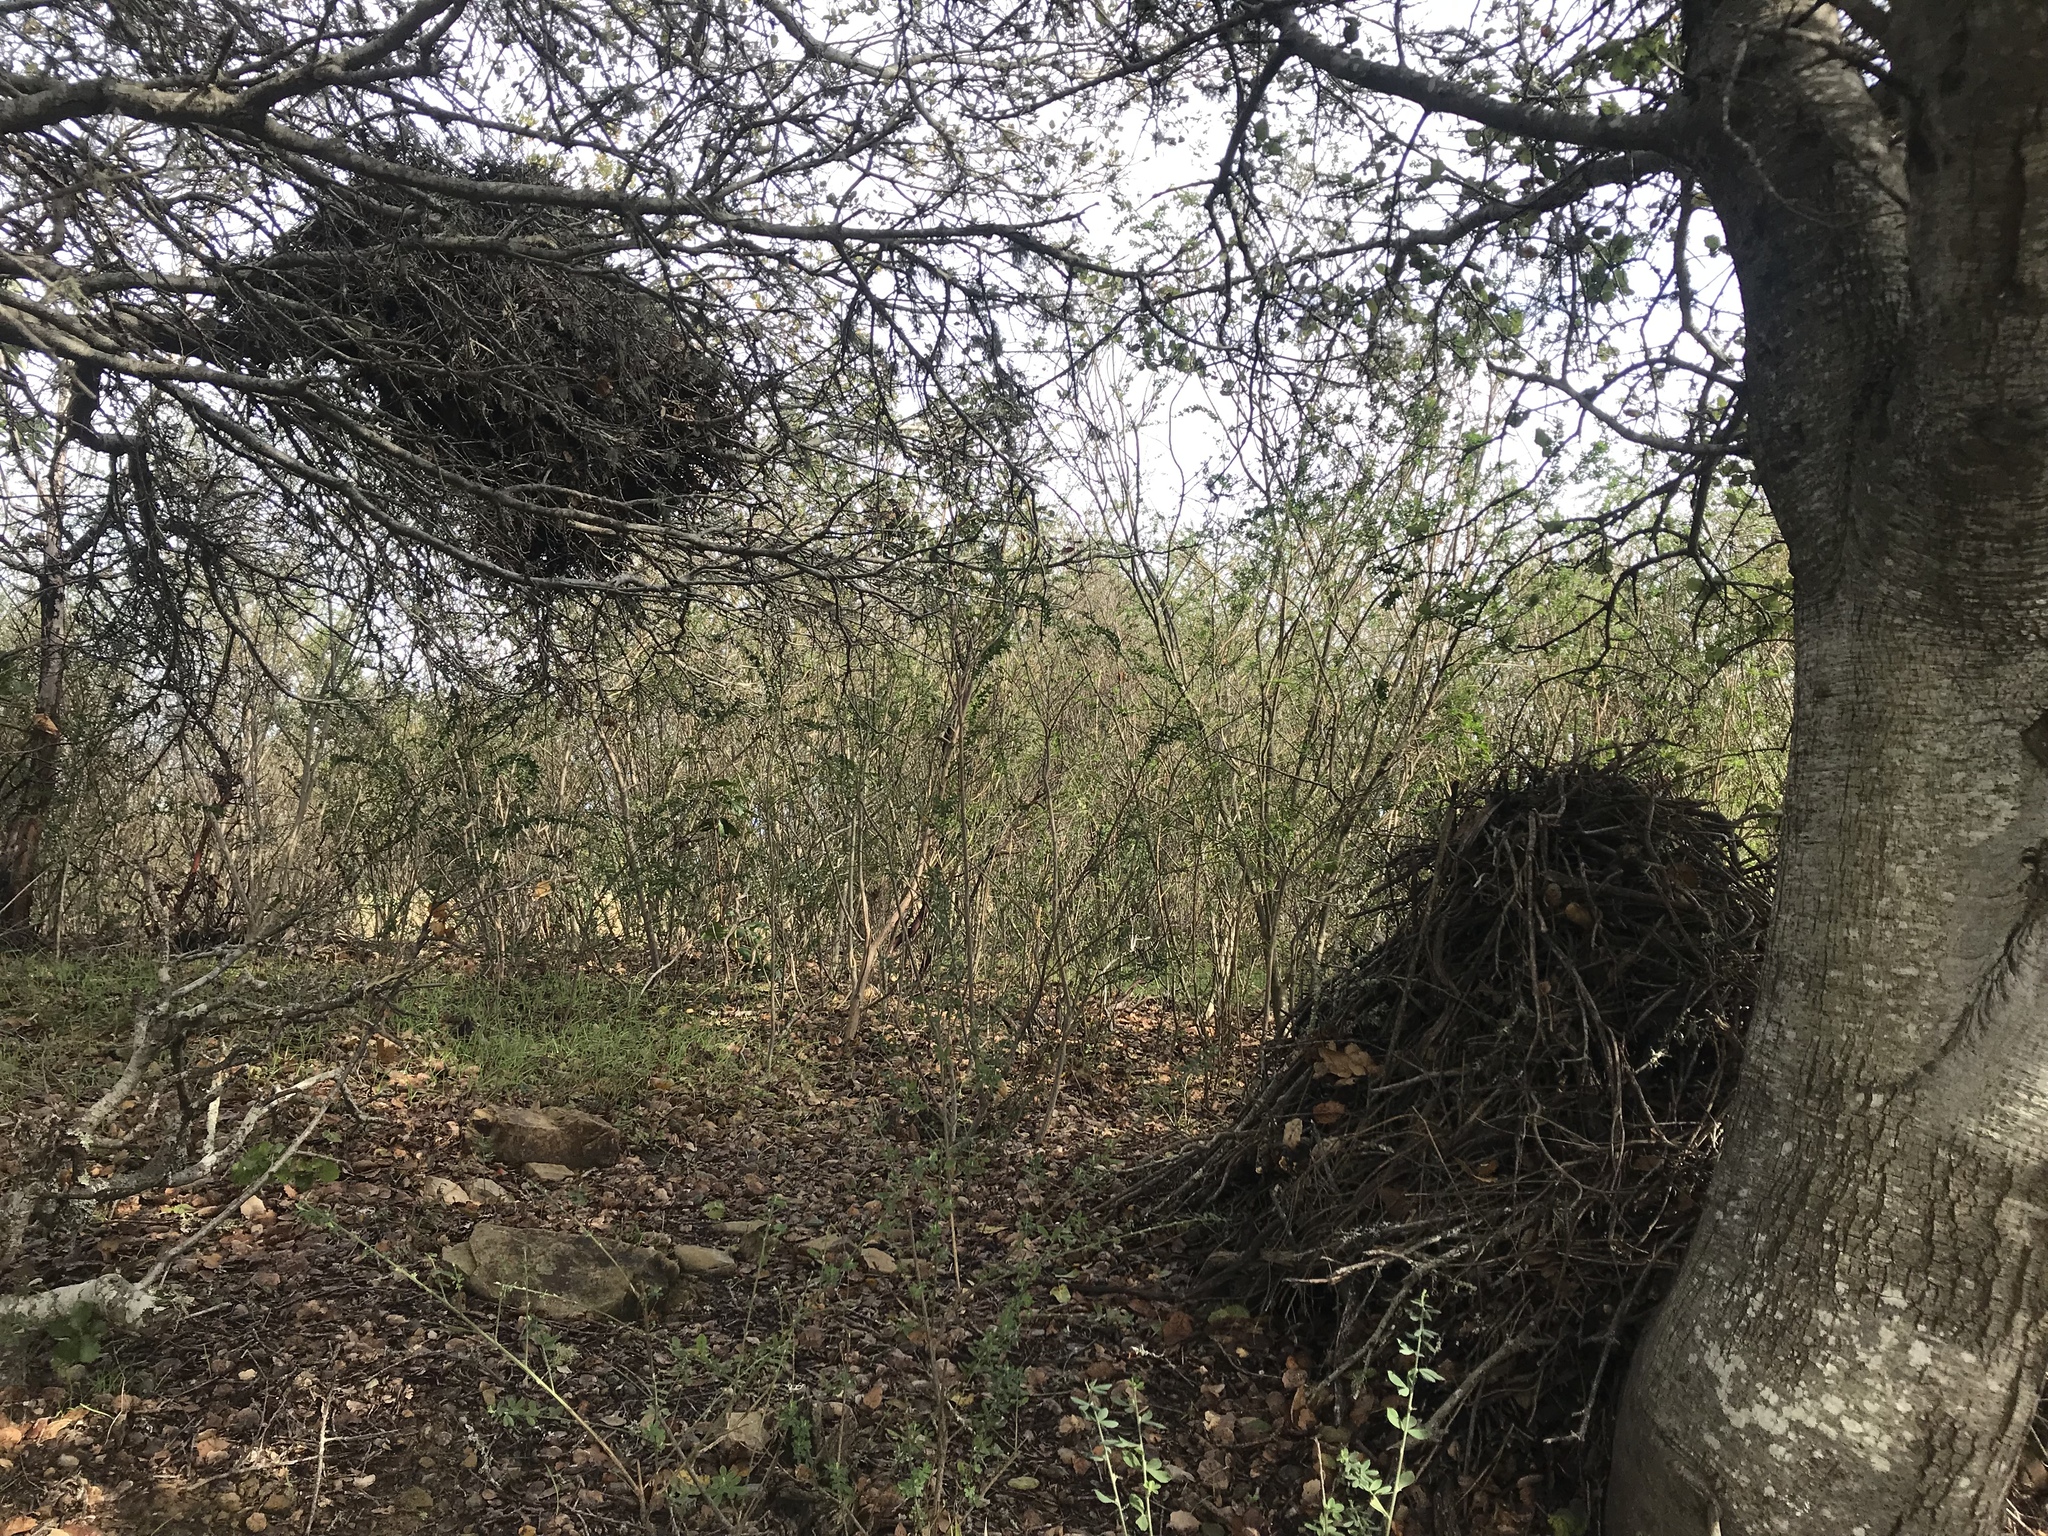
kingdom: Animalia
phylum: Chordata
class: Mammalia
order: Rodentia
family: Cricetidae
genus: Neotoma
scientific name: Neotoma fuscipes
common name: Dusky-footed woodrat
